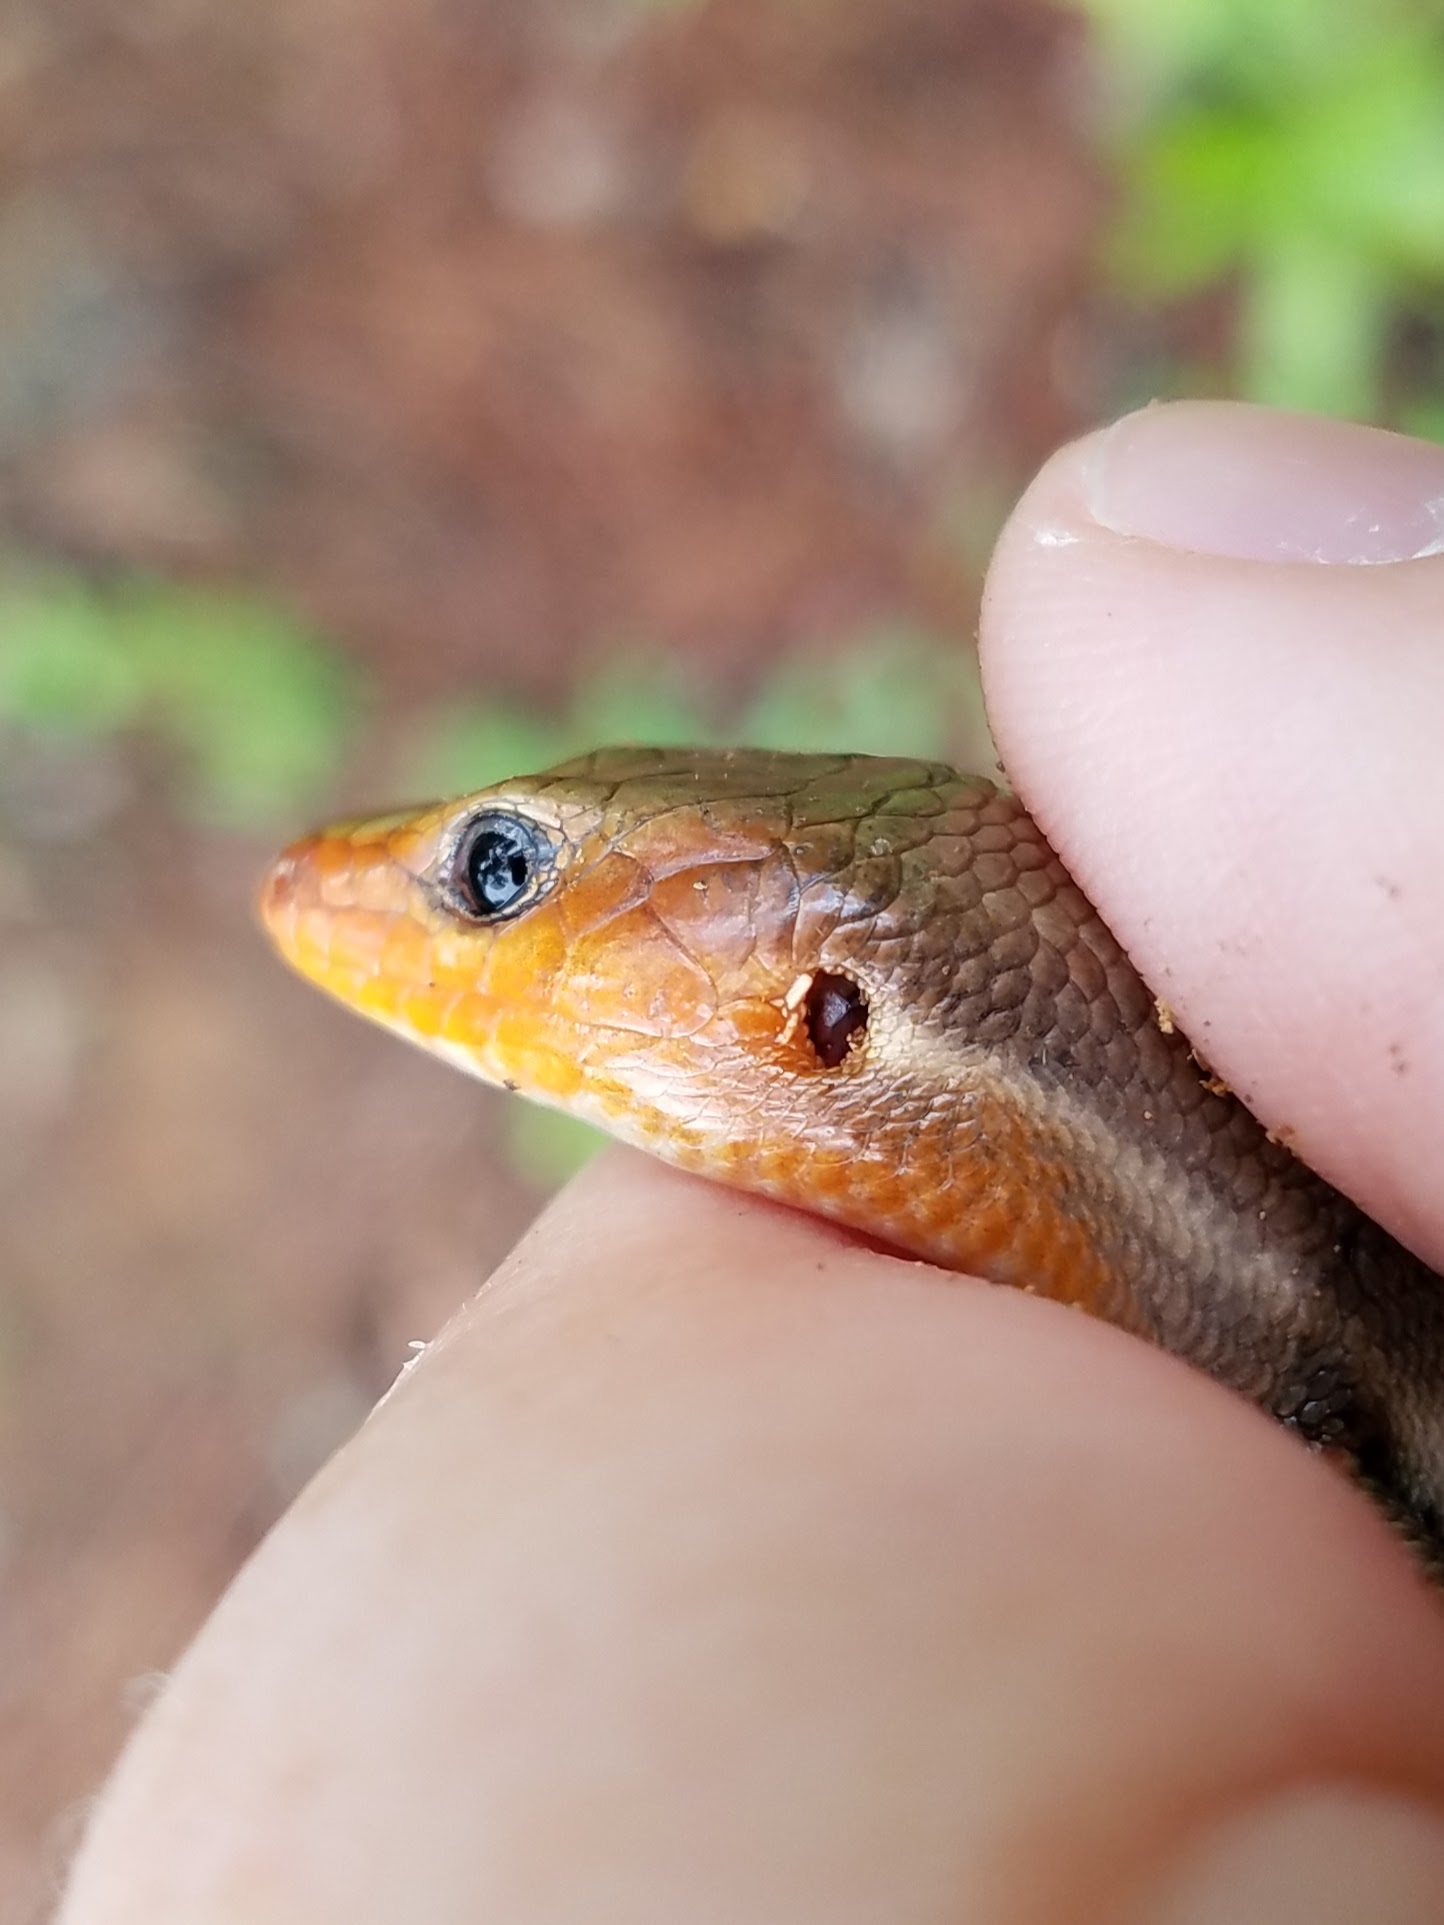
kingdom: Animalia
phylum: Chordata
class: Squamata
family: Scincidae
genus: Plestiodon
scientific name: Plestiodon fasciatus
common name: Five-lined skink
